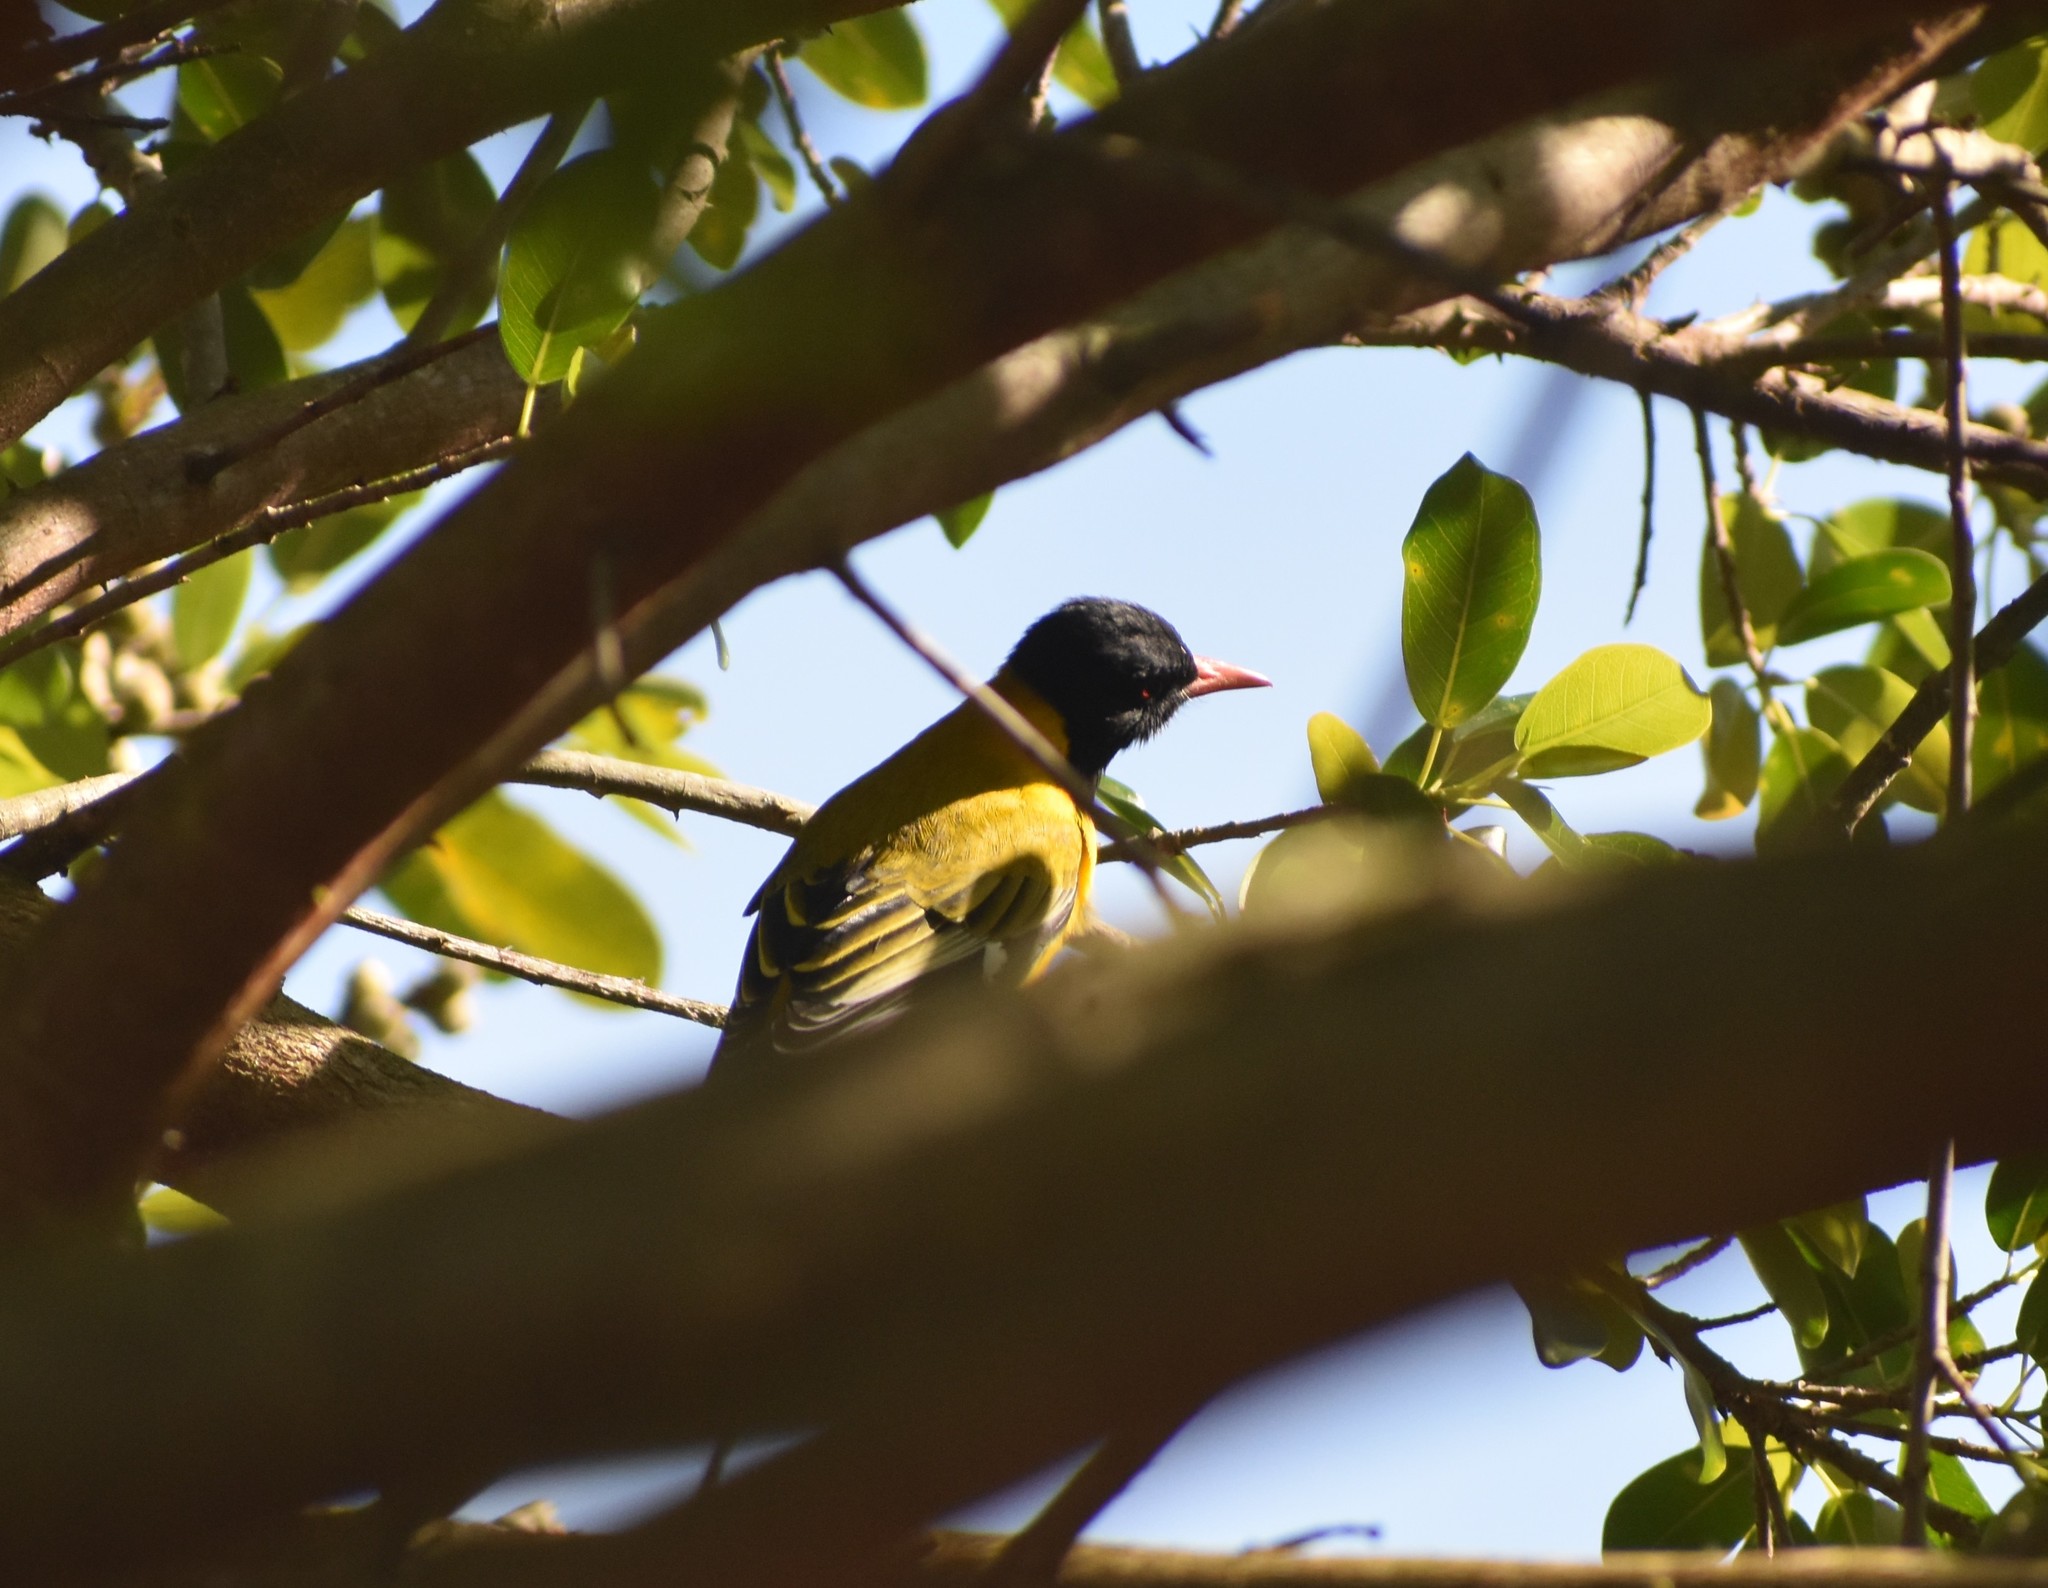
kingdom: Animalia
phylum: Chordata
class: Aves
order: Passeriformes
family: Oriolidae
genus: Oriolus
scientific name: Oriolus larvatus
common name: Black-headed oriole
